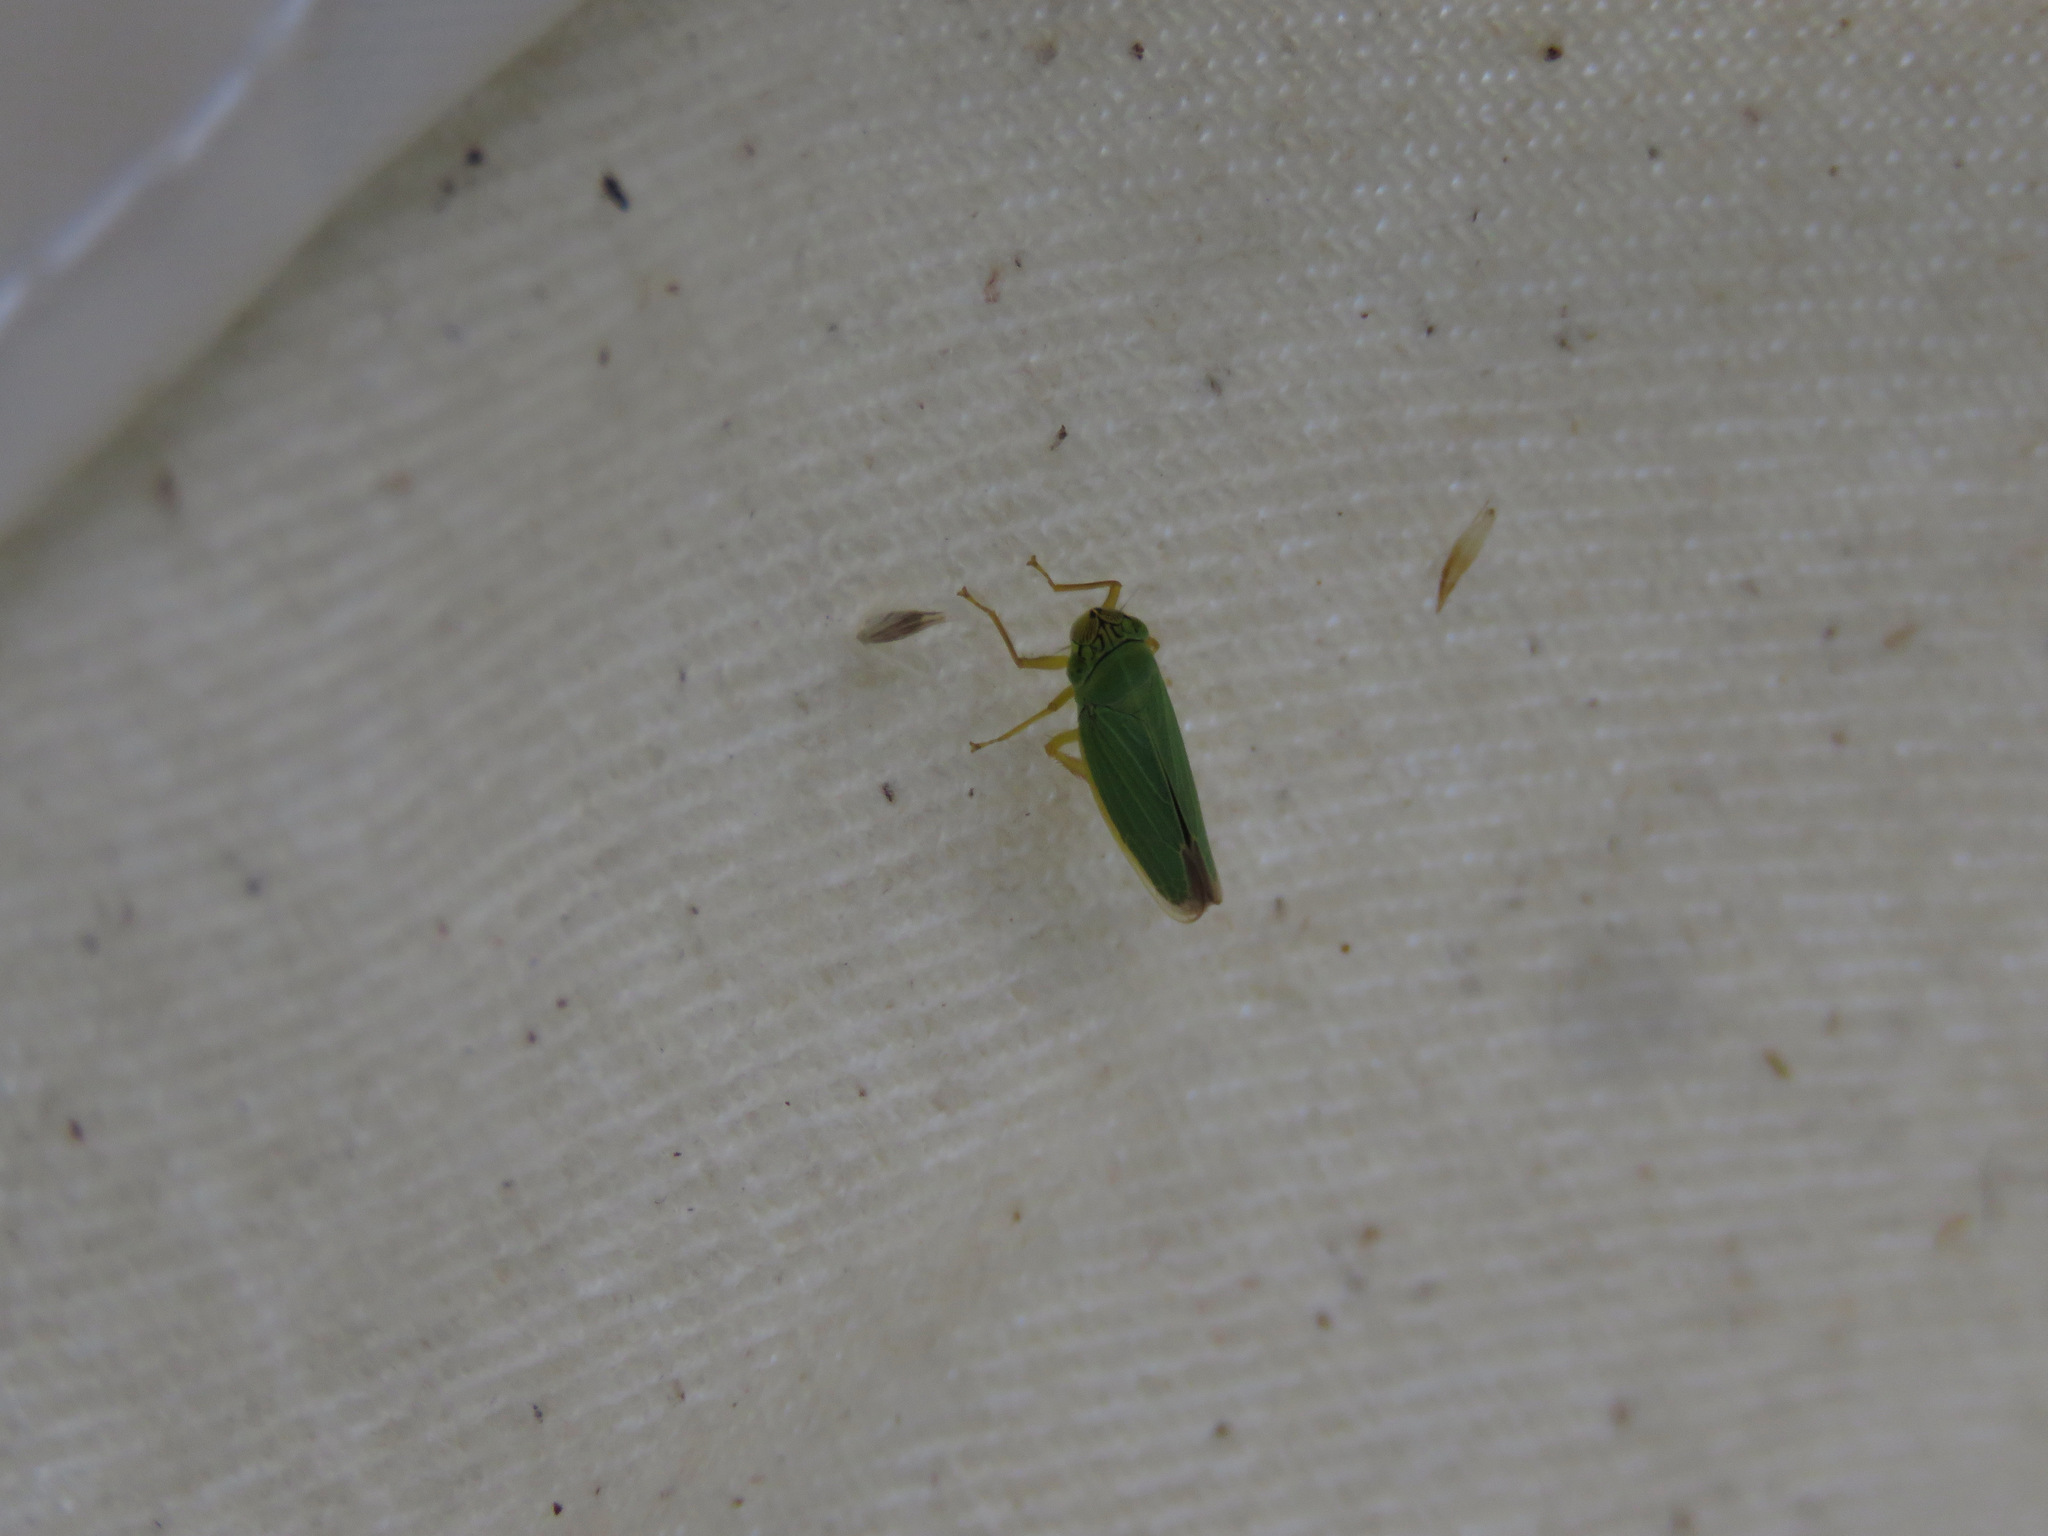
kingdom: Animalia
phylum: Arthropoda
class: Insecta
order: Hemiptera
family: Cicadellidae
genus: Draeculacephala
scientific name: Draeculacephala angulifera
